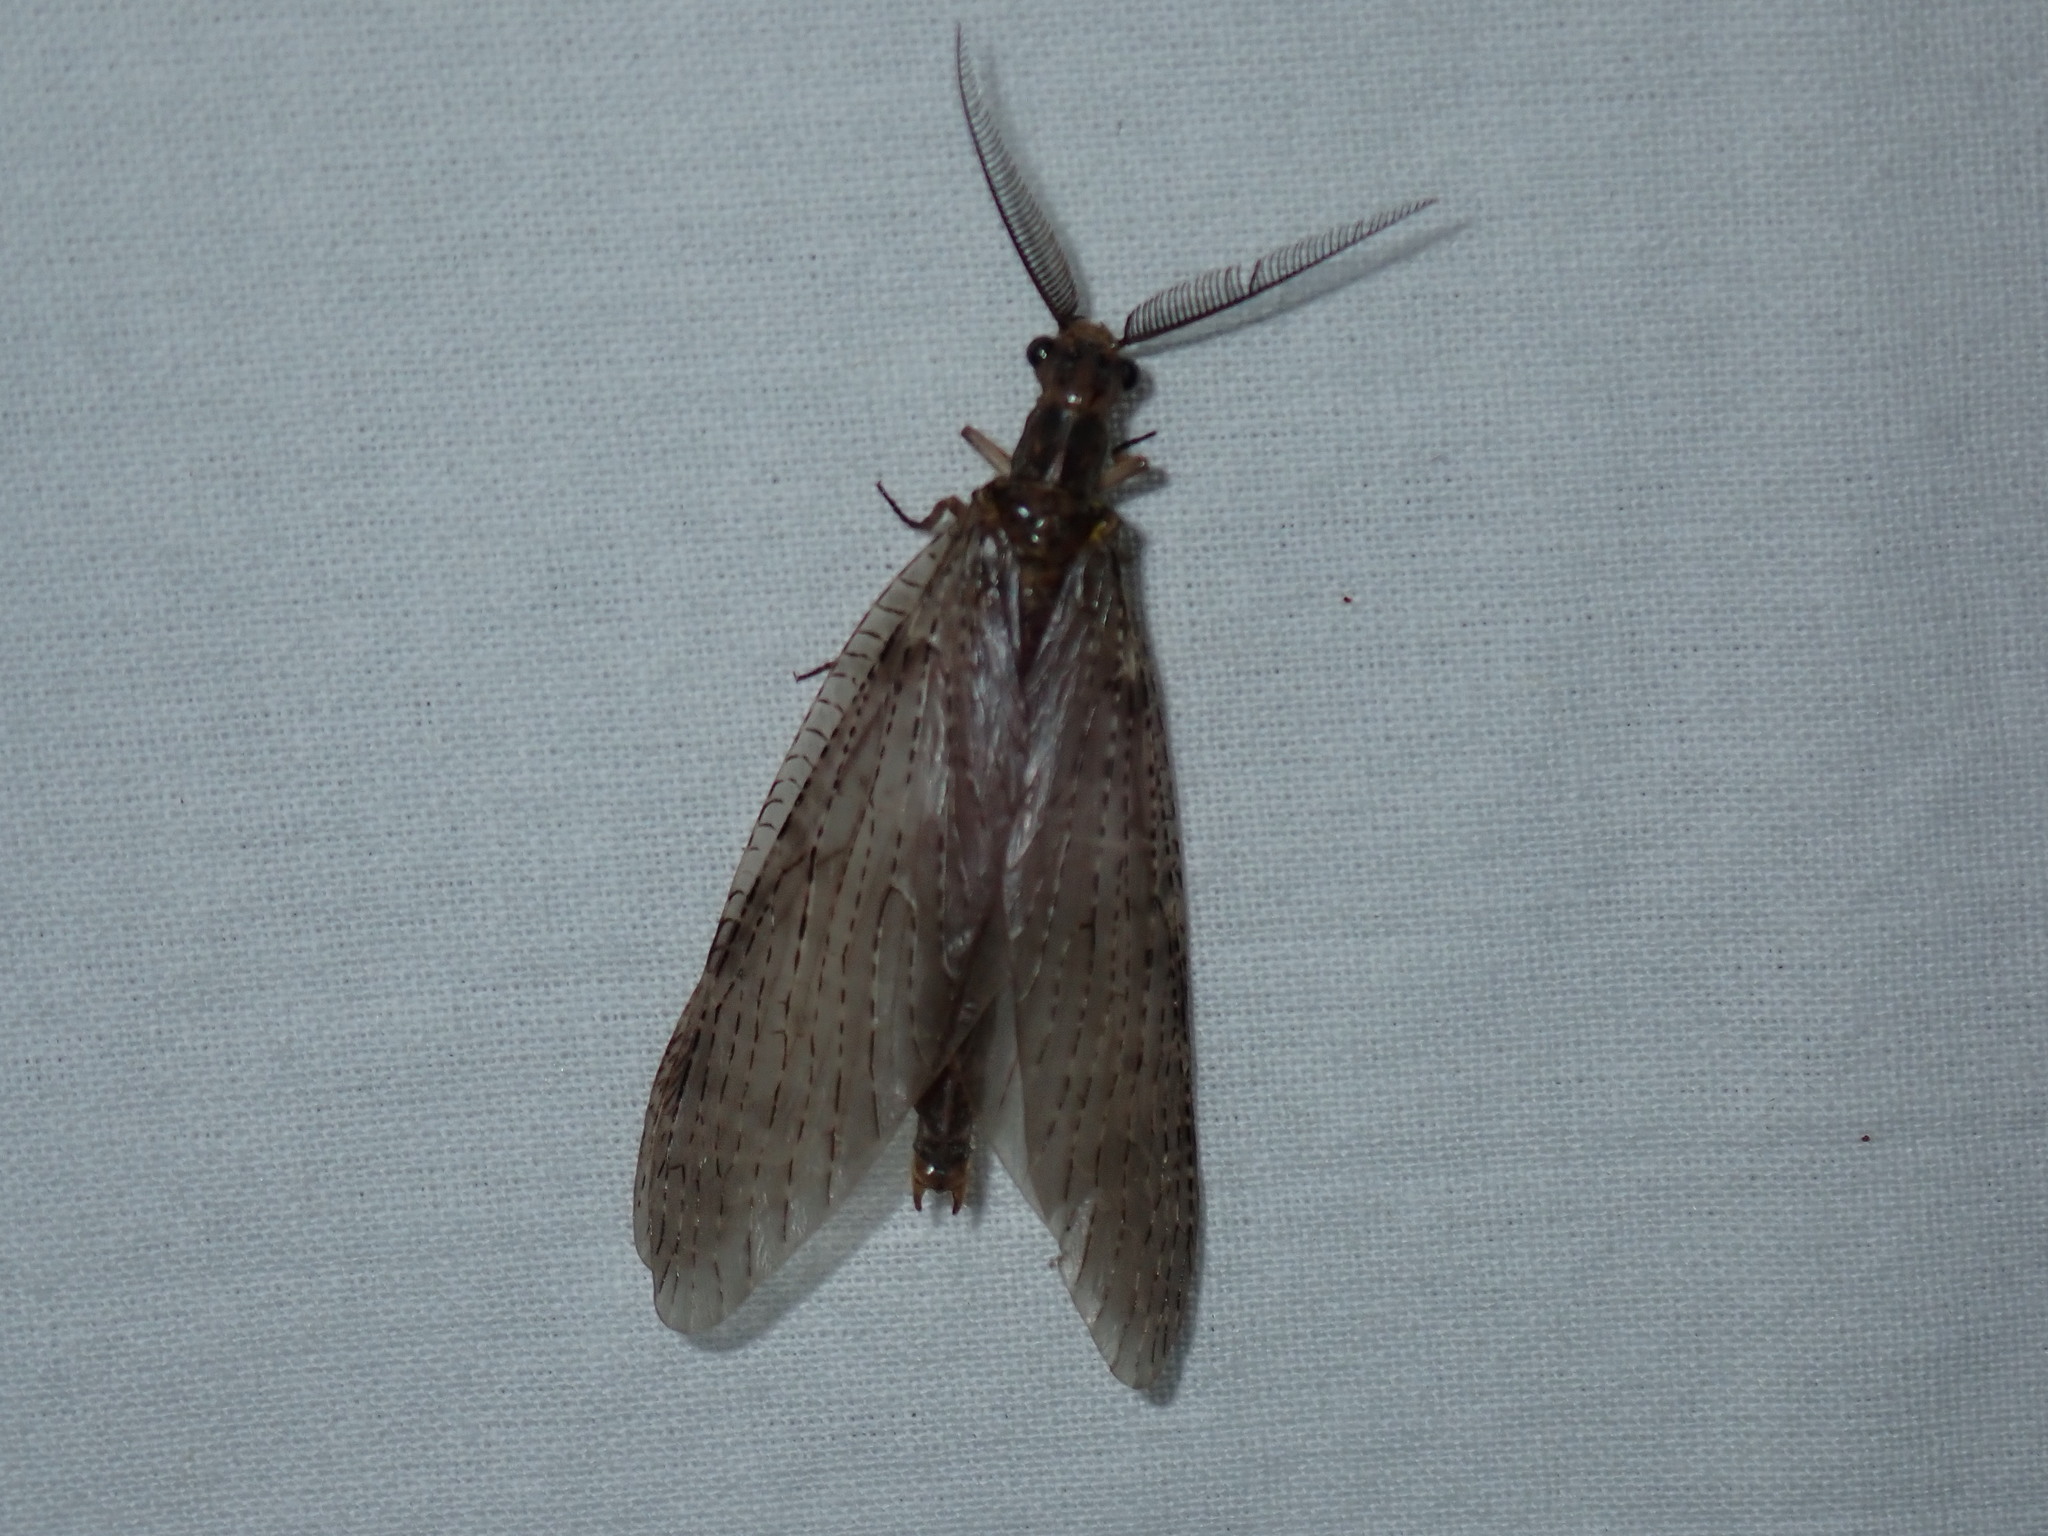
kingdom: Animalia
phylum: Arthropoda
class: Insecta
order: Megaloptera
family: Corydalidae
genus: Chauliodes
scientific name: Chauliodes pectinicornis
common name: Summer fishfly
